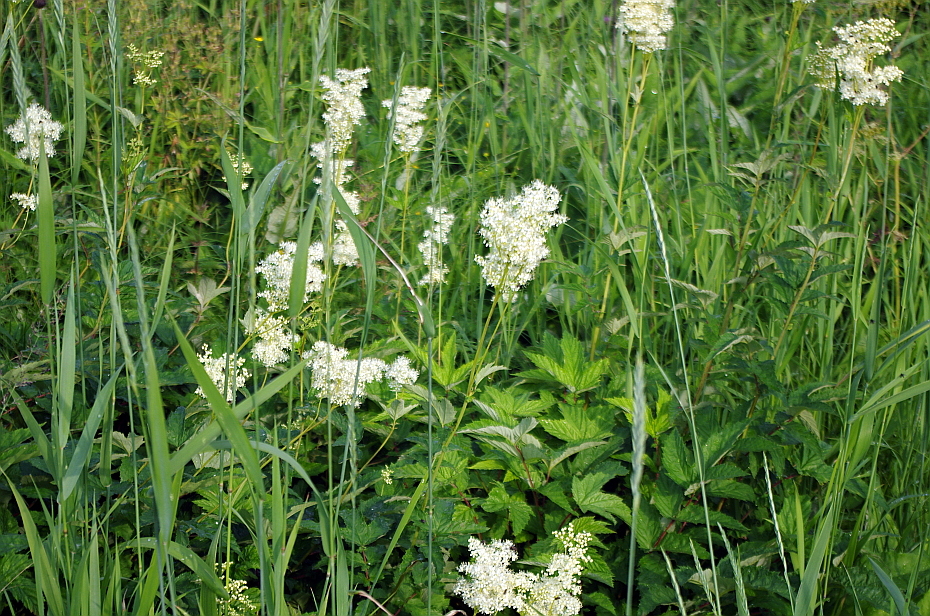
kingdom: Plantae
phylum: Tracheophyta
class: Magnoliopsida
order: Rosales
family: Rosaceae
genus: Filipendula
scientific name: Filipendula ulmaria
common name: Meadowsweet
